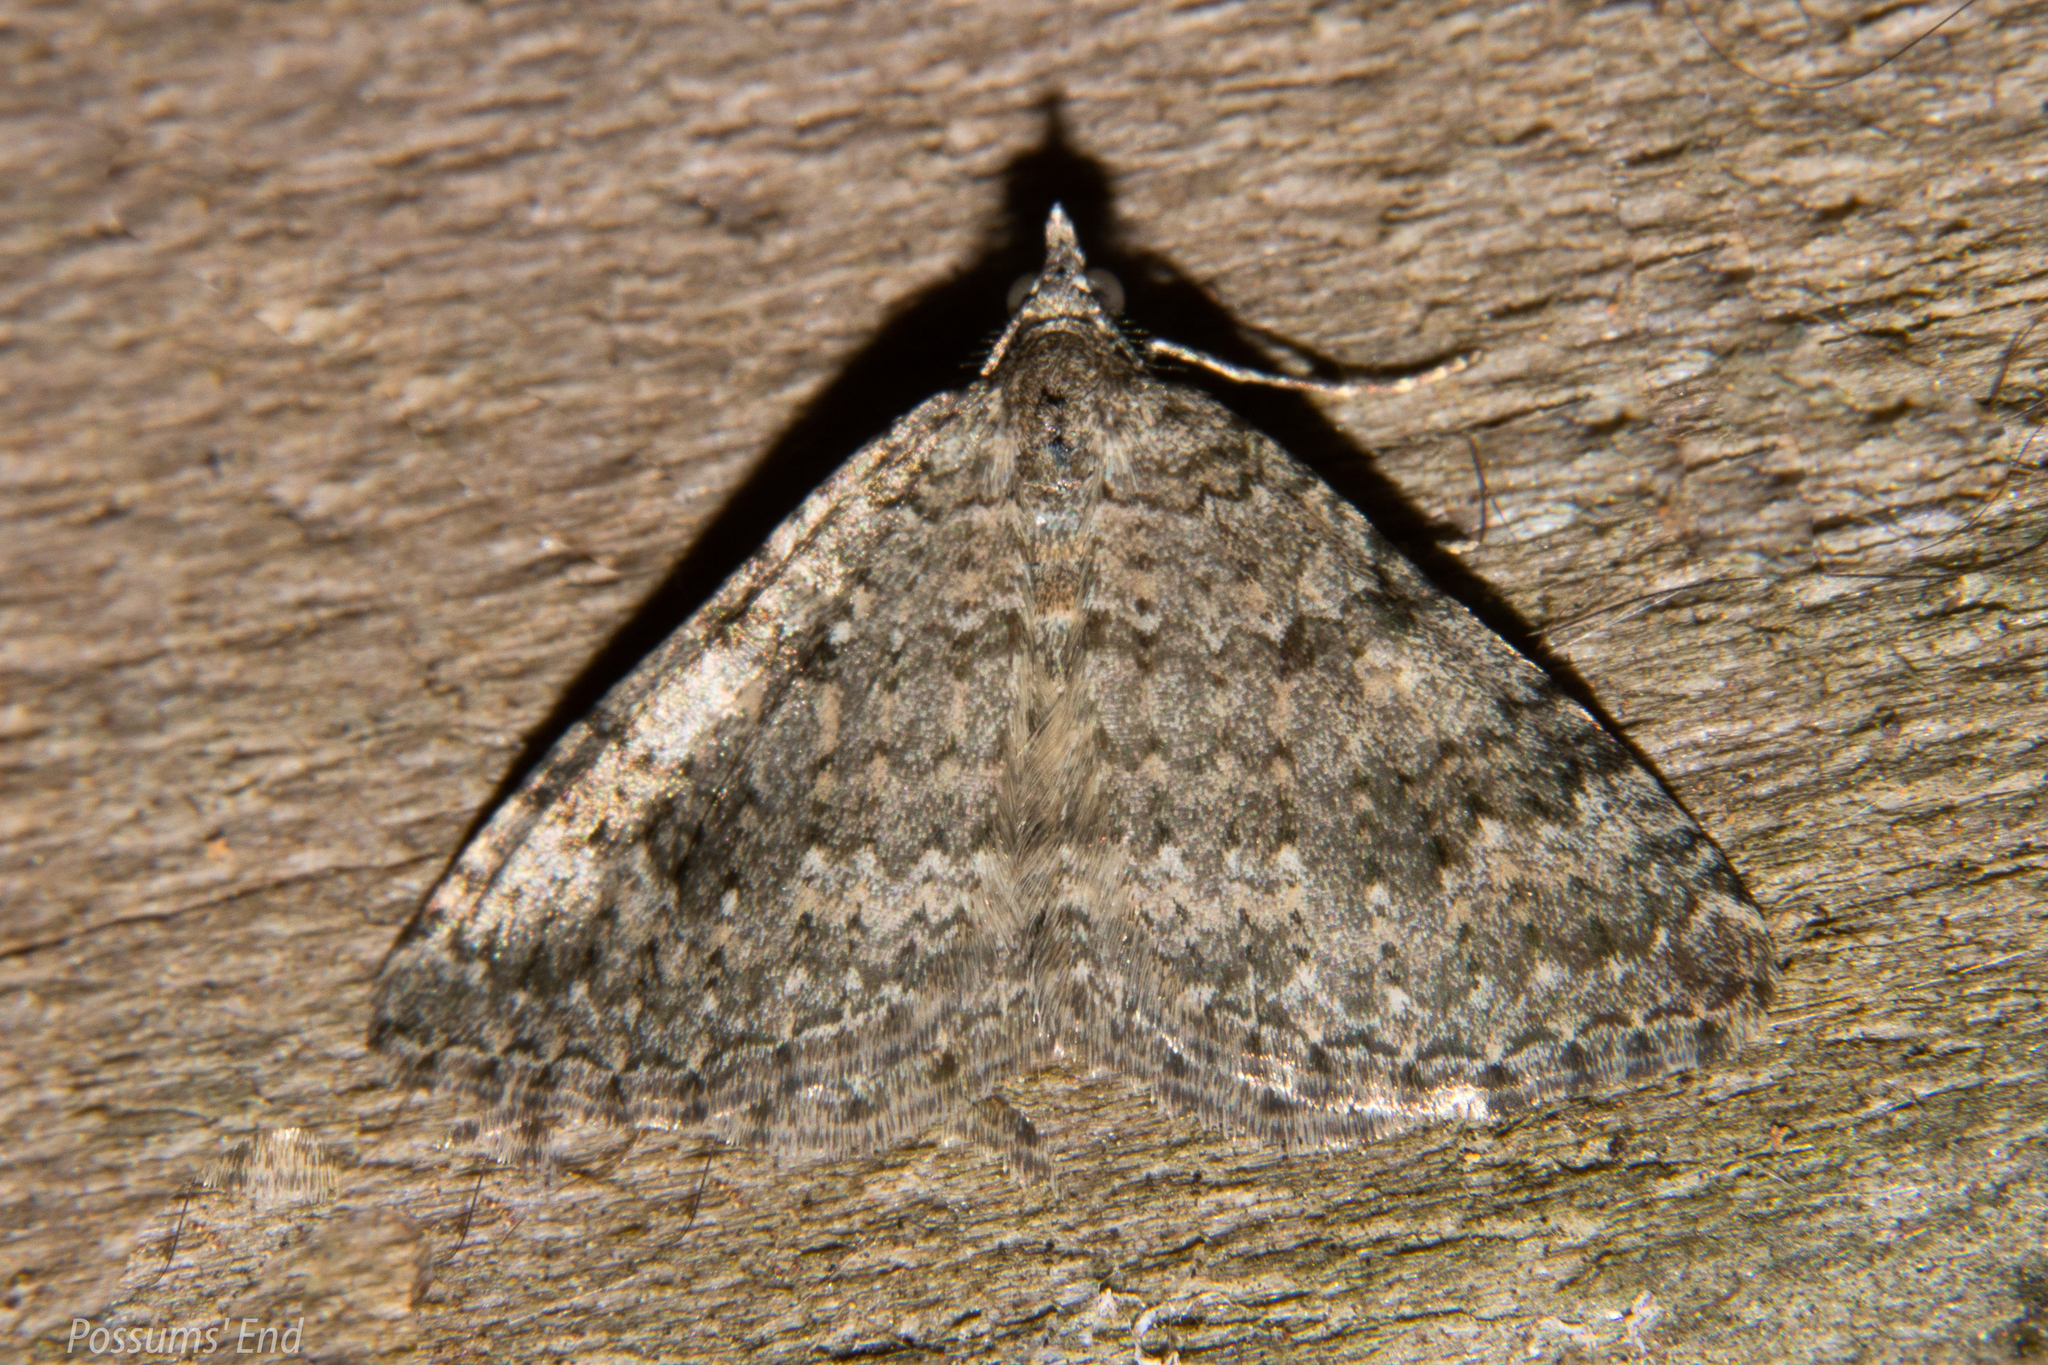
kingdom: Animalia
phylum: Arthropoda
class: Insecta
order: Lepidoptera
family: Geometridae
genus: Helastia
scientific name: Helastia corcularia
